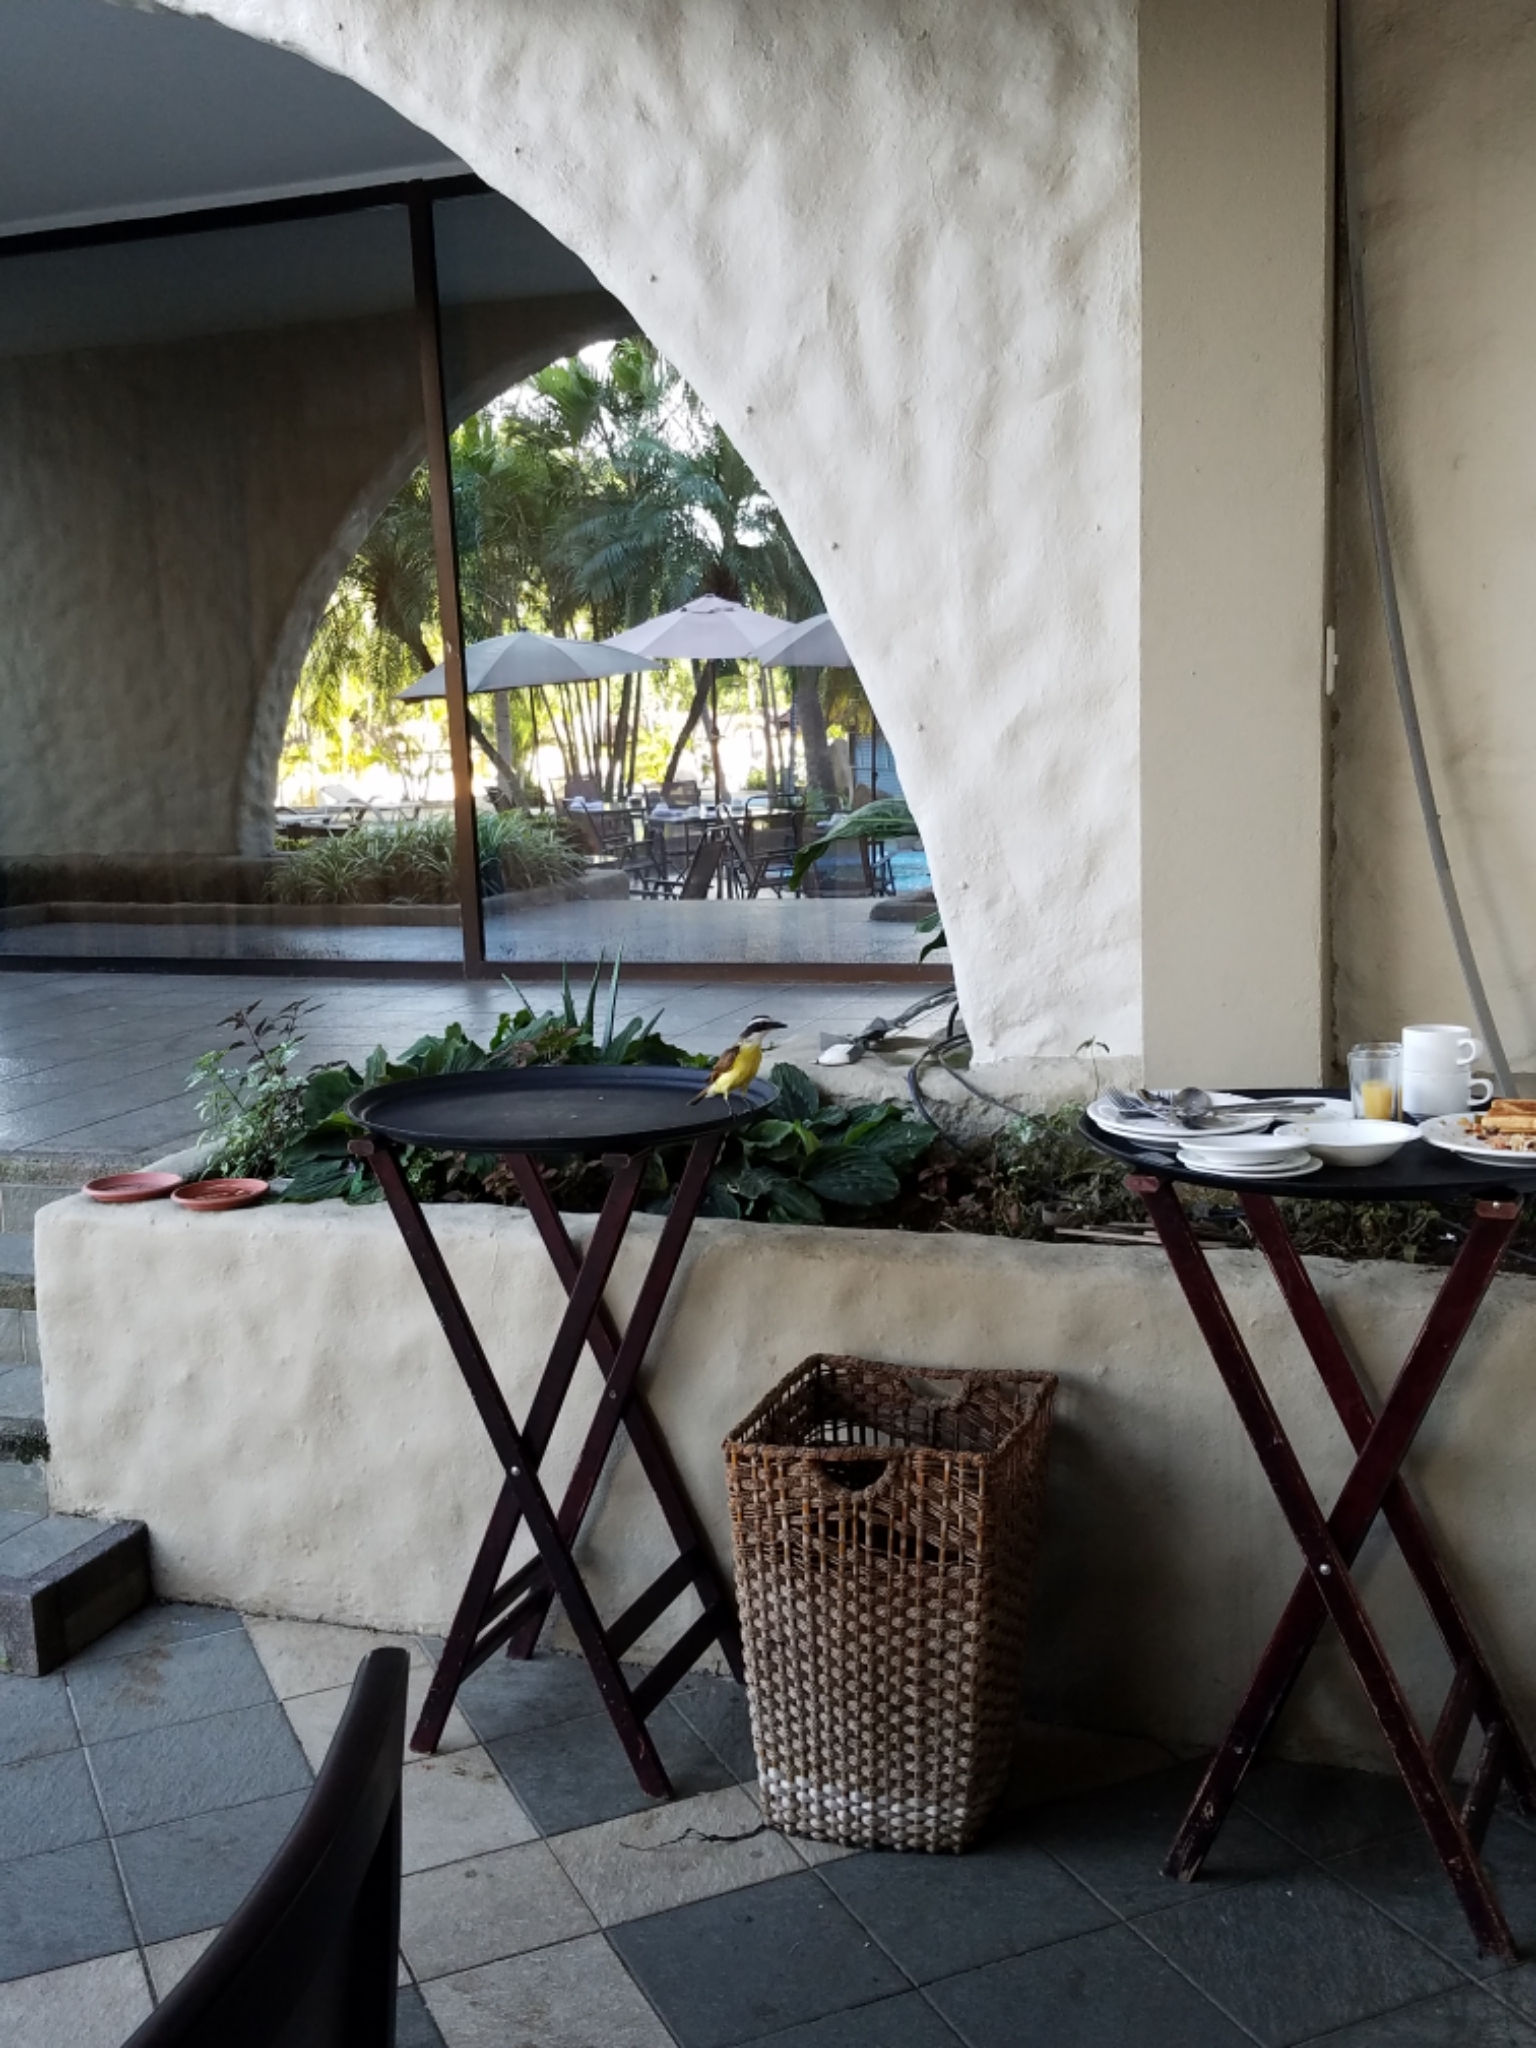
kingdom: Animalia
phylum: Chordata
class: Aves
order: Passeriformes
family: Tyrannidae
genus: Pitangus
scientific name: Pitangus sulphuratus
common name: Great kiskadee
